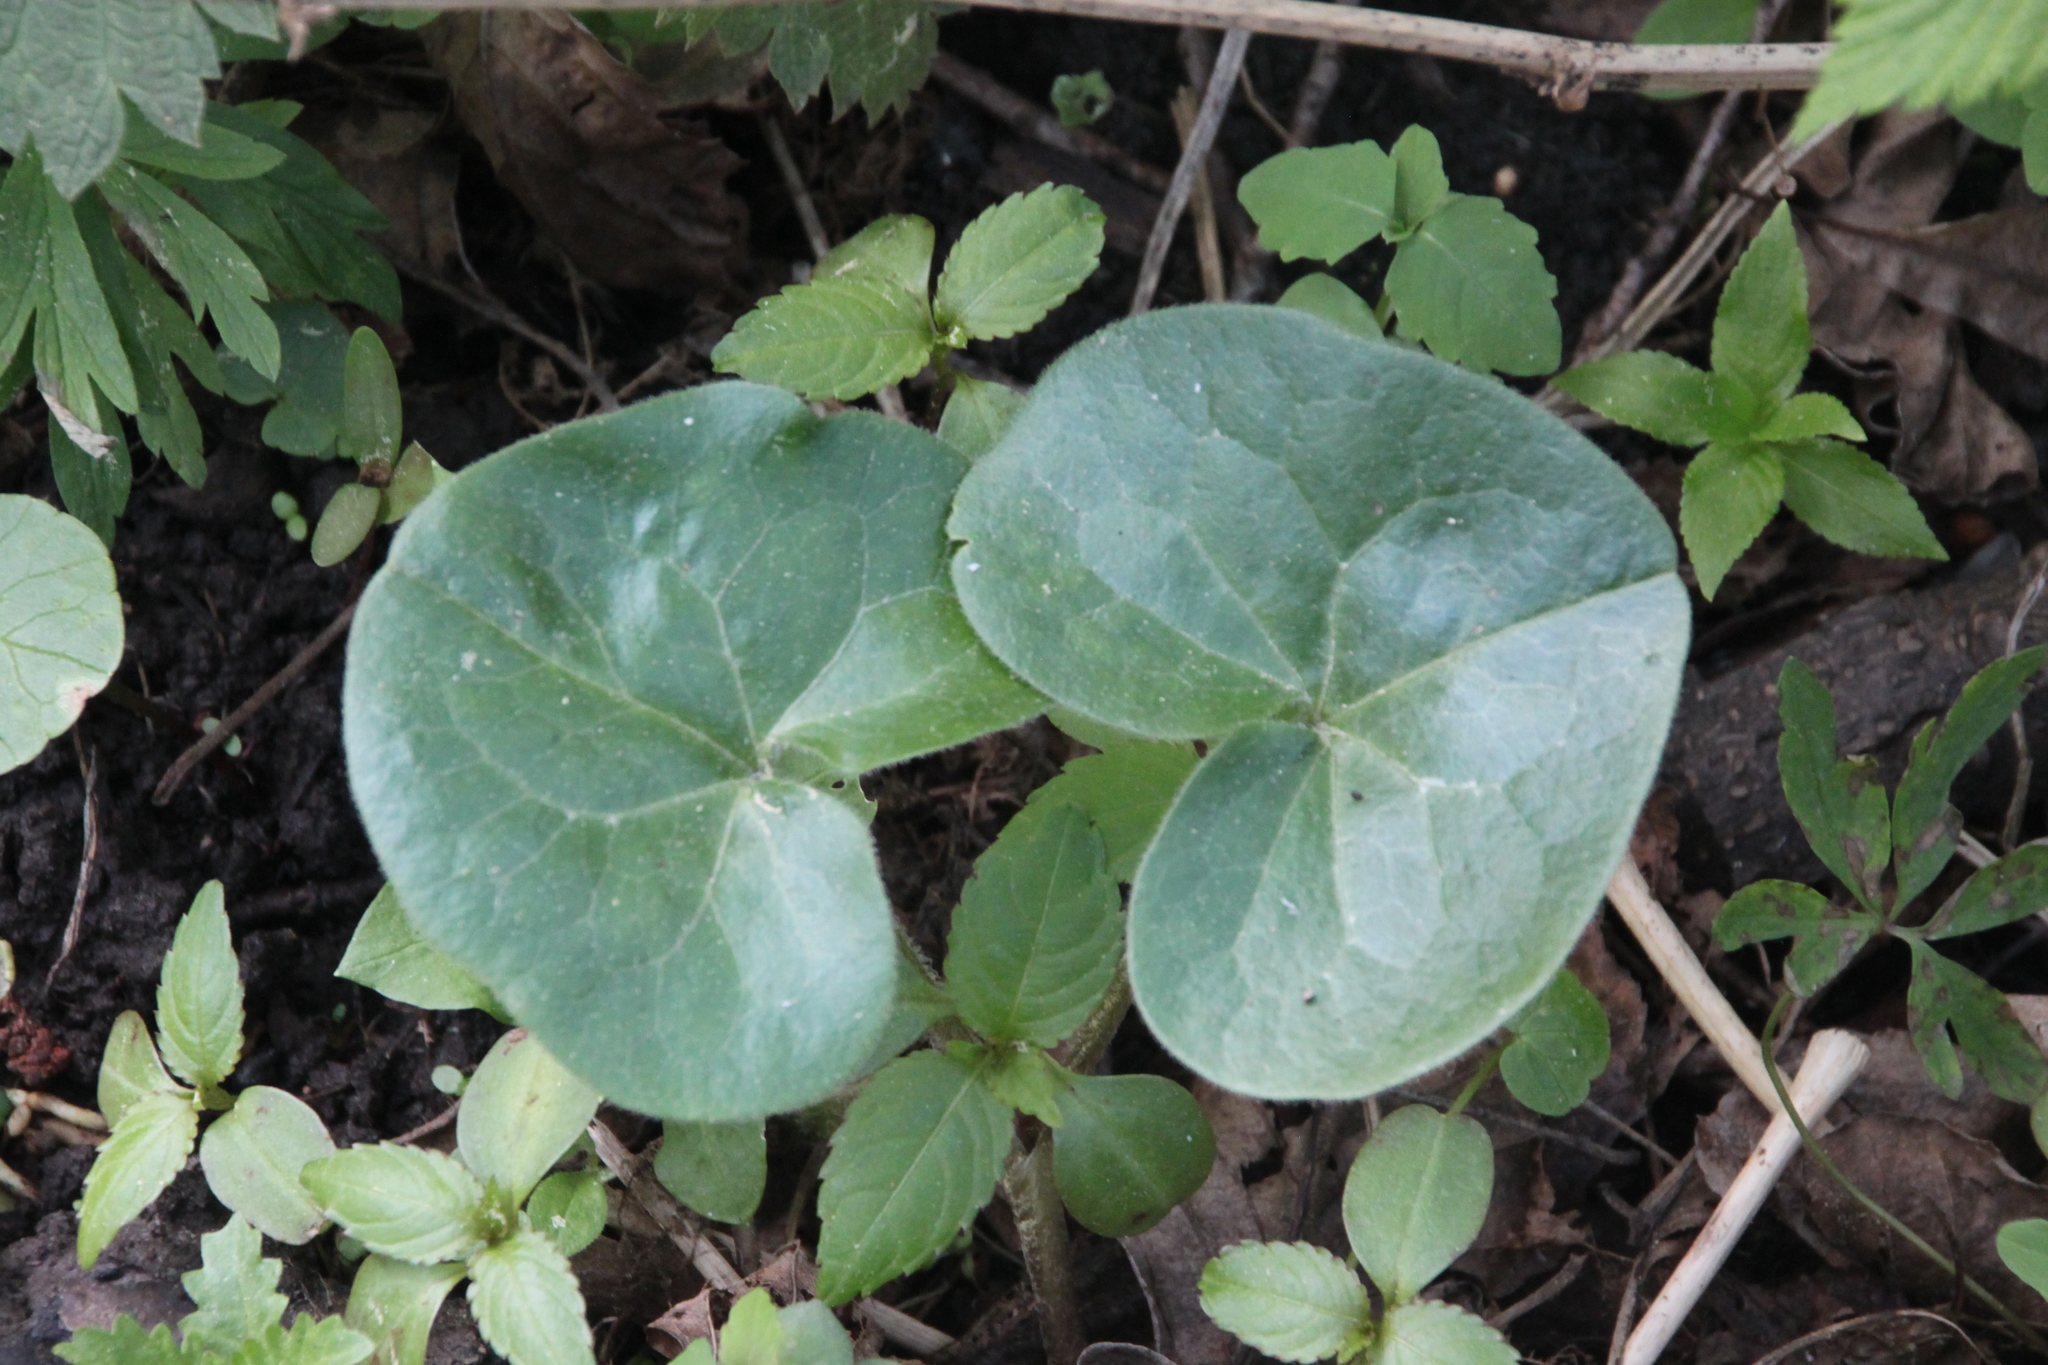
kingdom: Plantae
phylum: Tracheophyta
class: Magnoliopsida
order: Piperales
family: Aristolochiaceae
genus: Asarum
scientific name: Asarum europaeum
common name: Asarabacca
